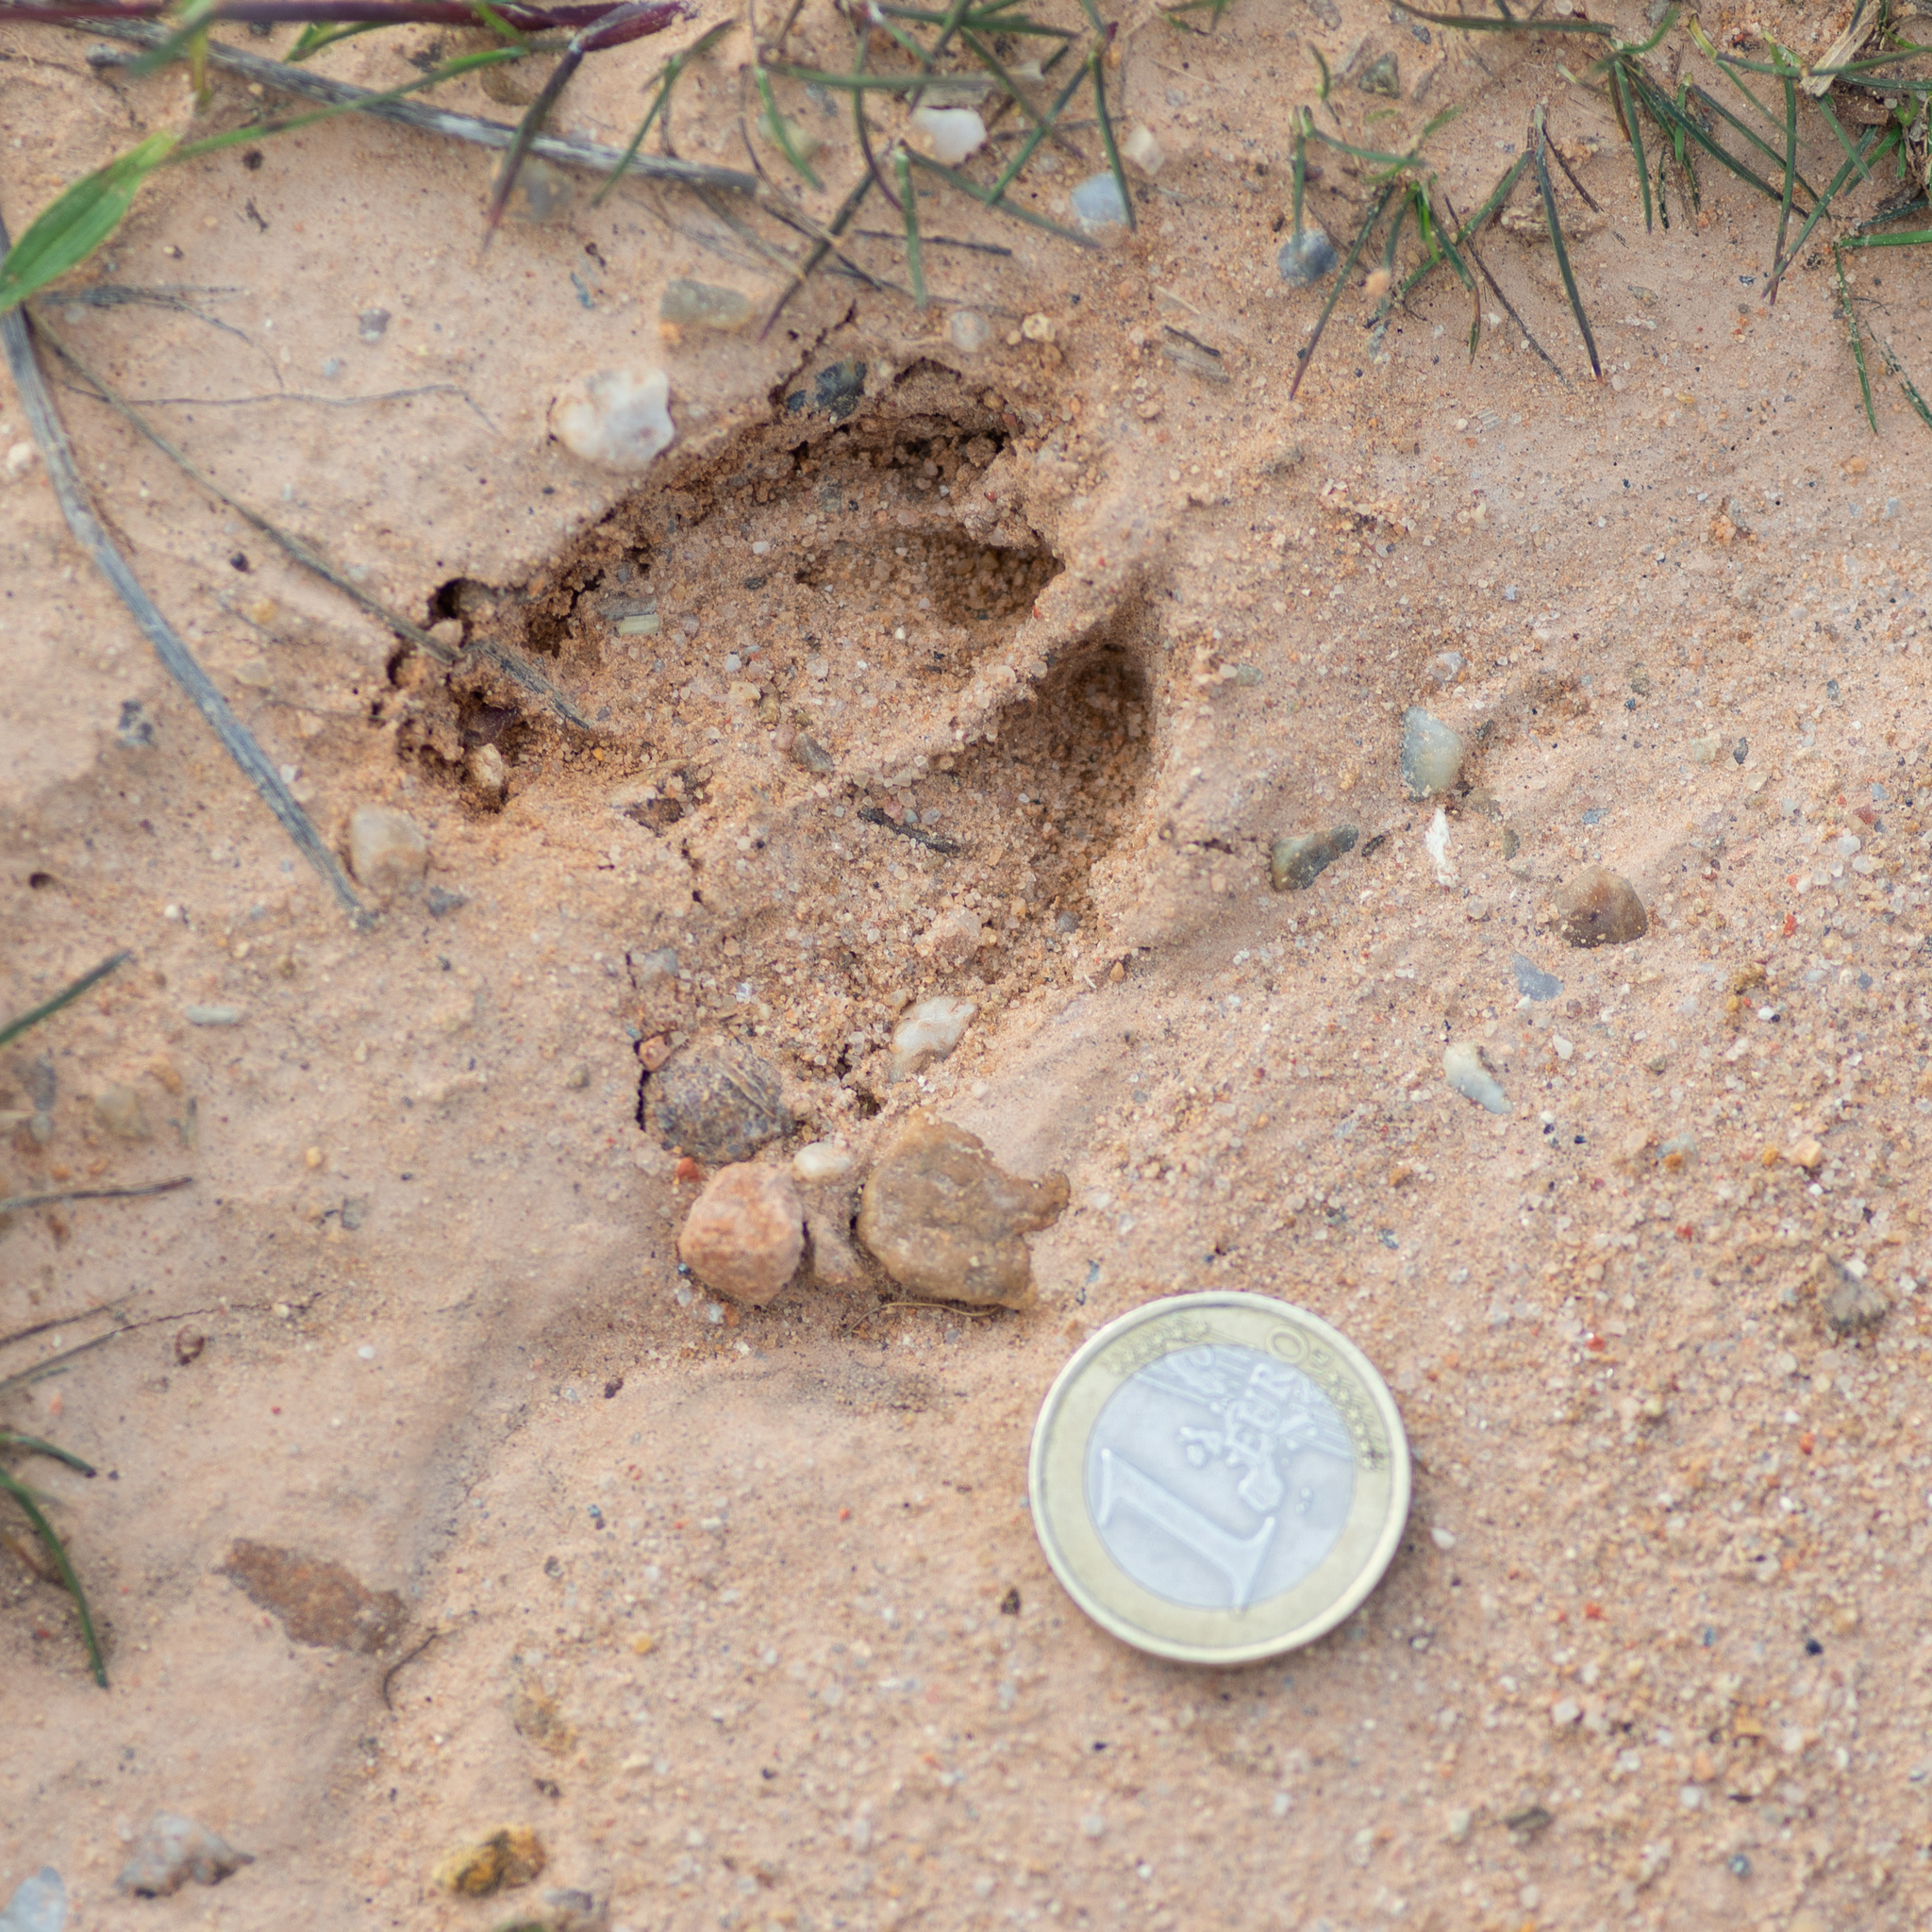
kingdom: Animalia
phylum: Chordata
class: Mammalia
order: Artiodactyla
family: Cervidae
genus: Capreolus
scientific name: Capreolus capreolus
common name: Western roe deer
